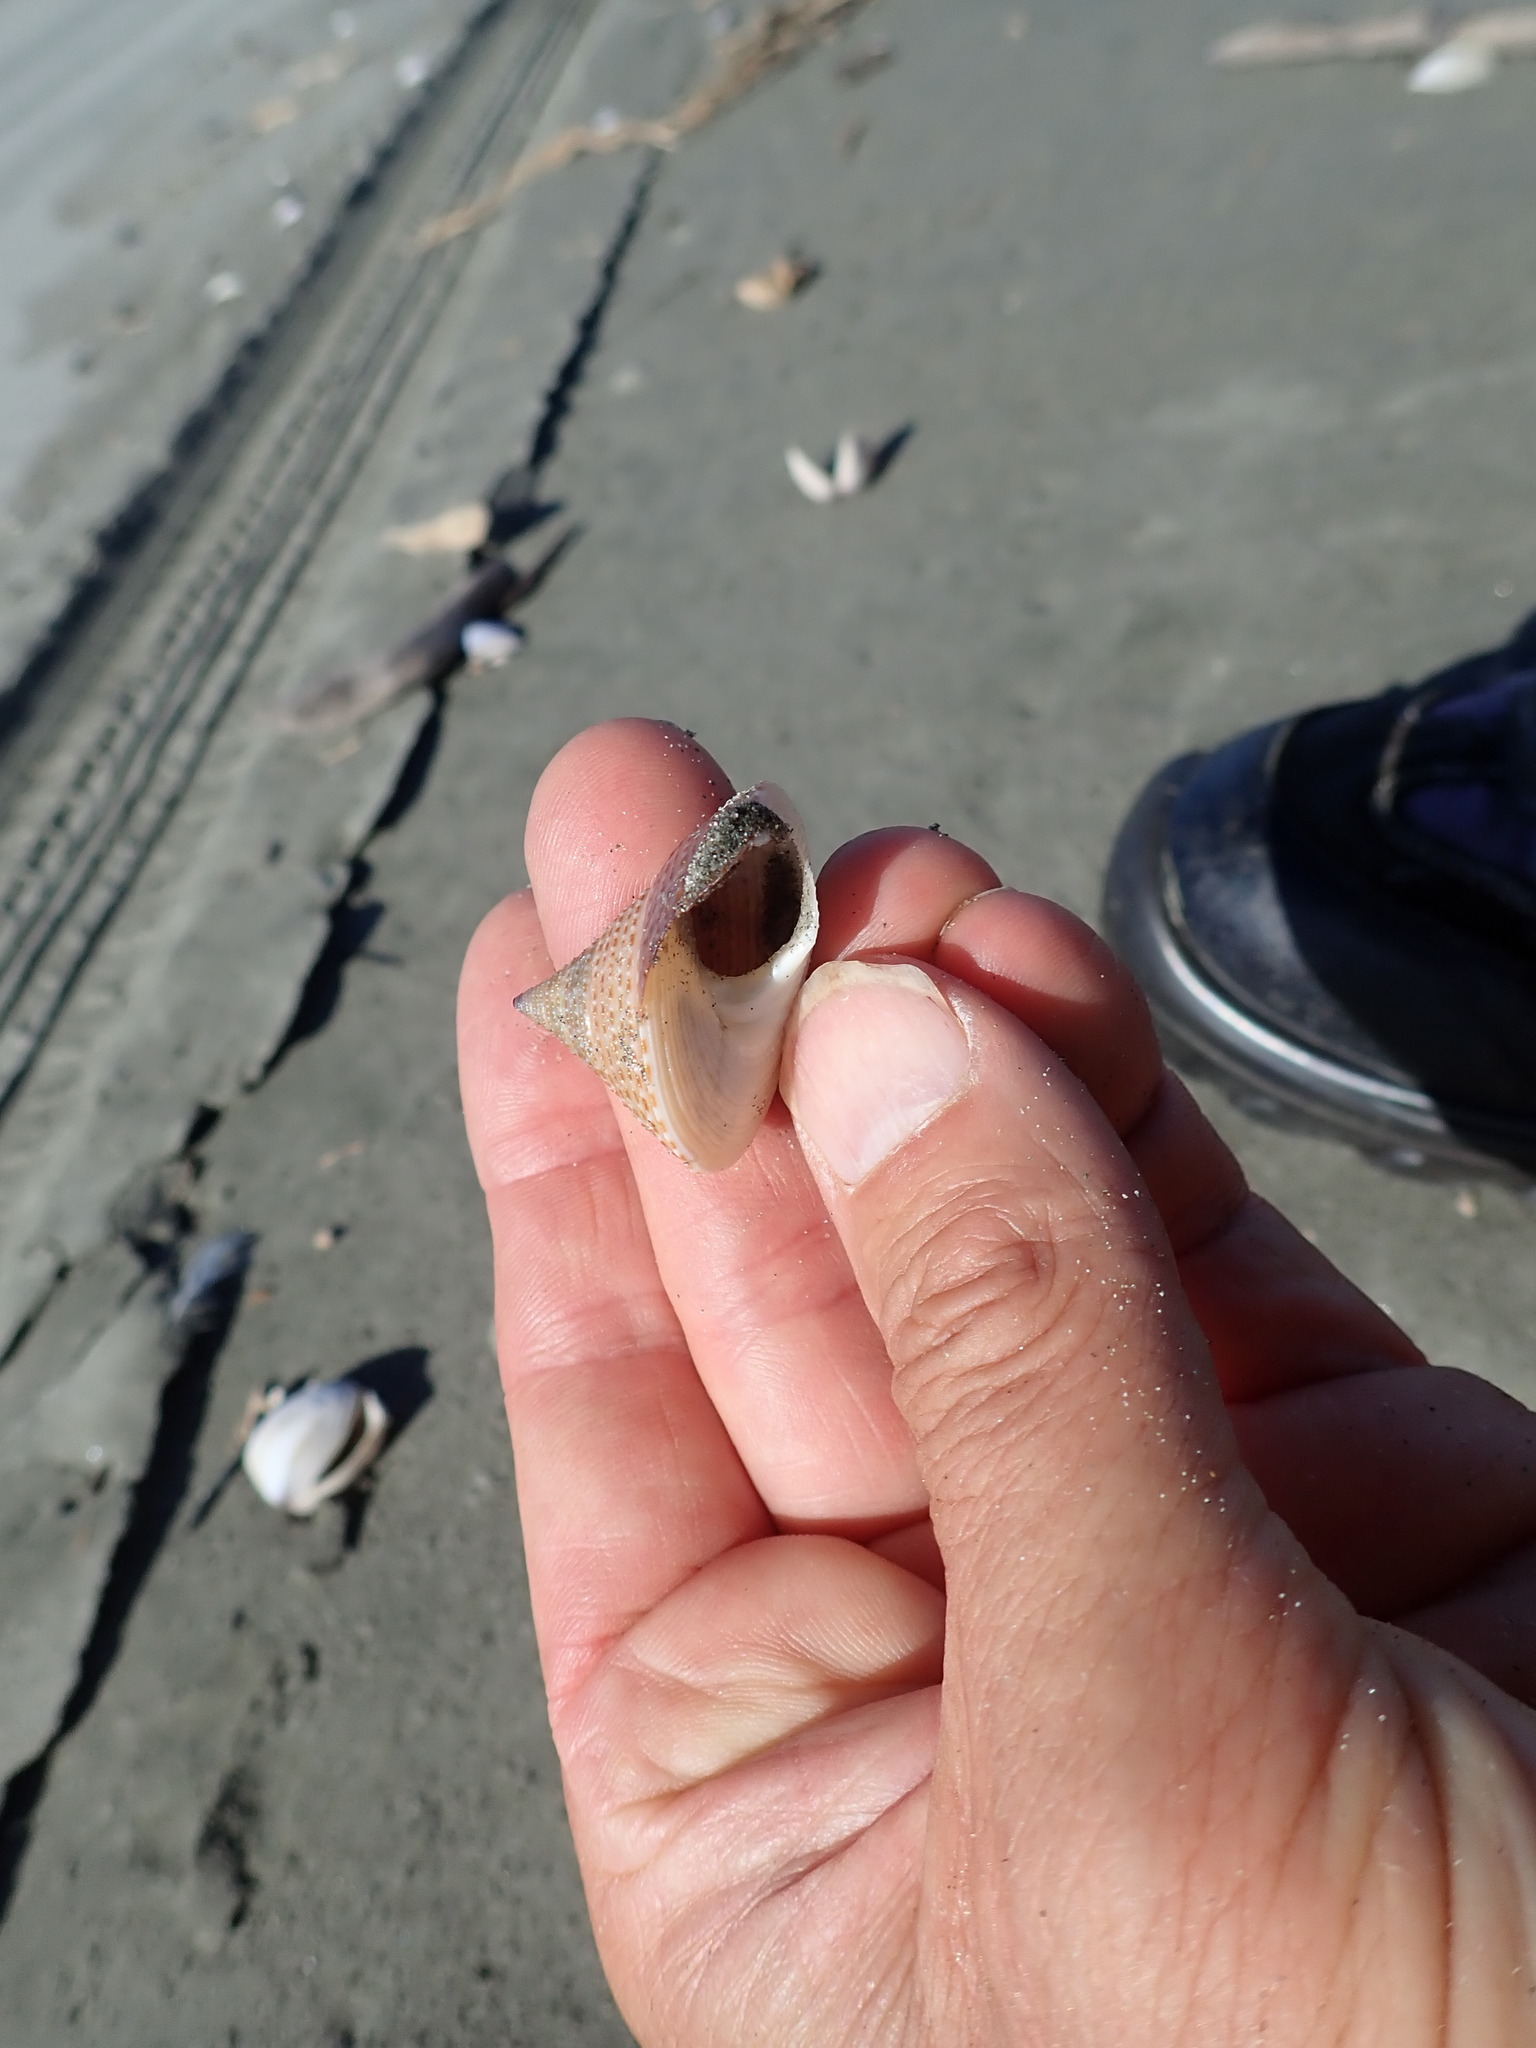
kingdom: Animalia
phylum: Mollusca
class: Gastropoda
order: Trochida
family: Calliostomatidae
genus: Maurea
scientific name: Maurea selecta
